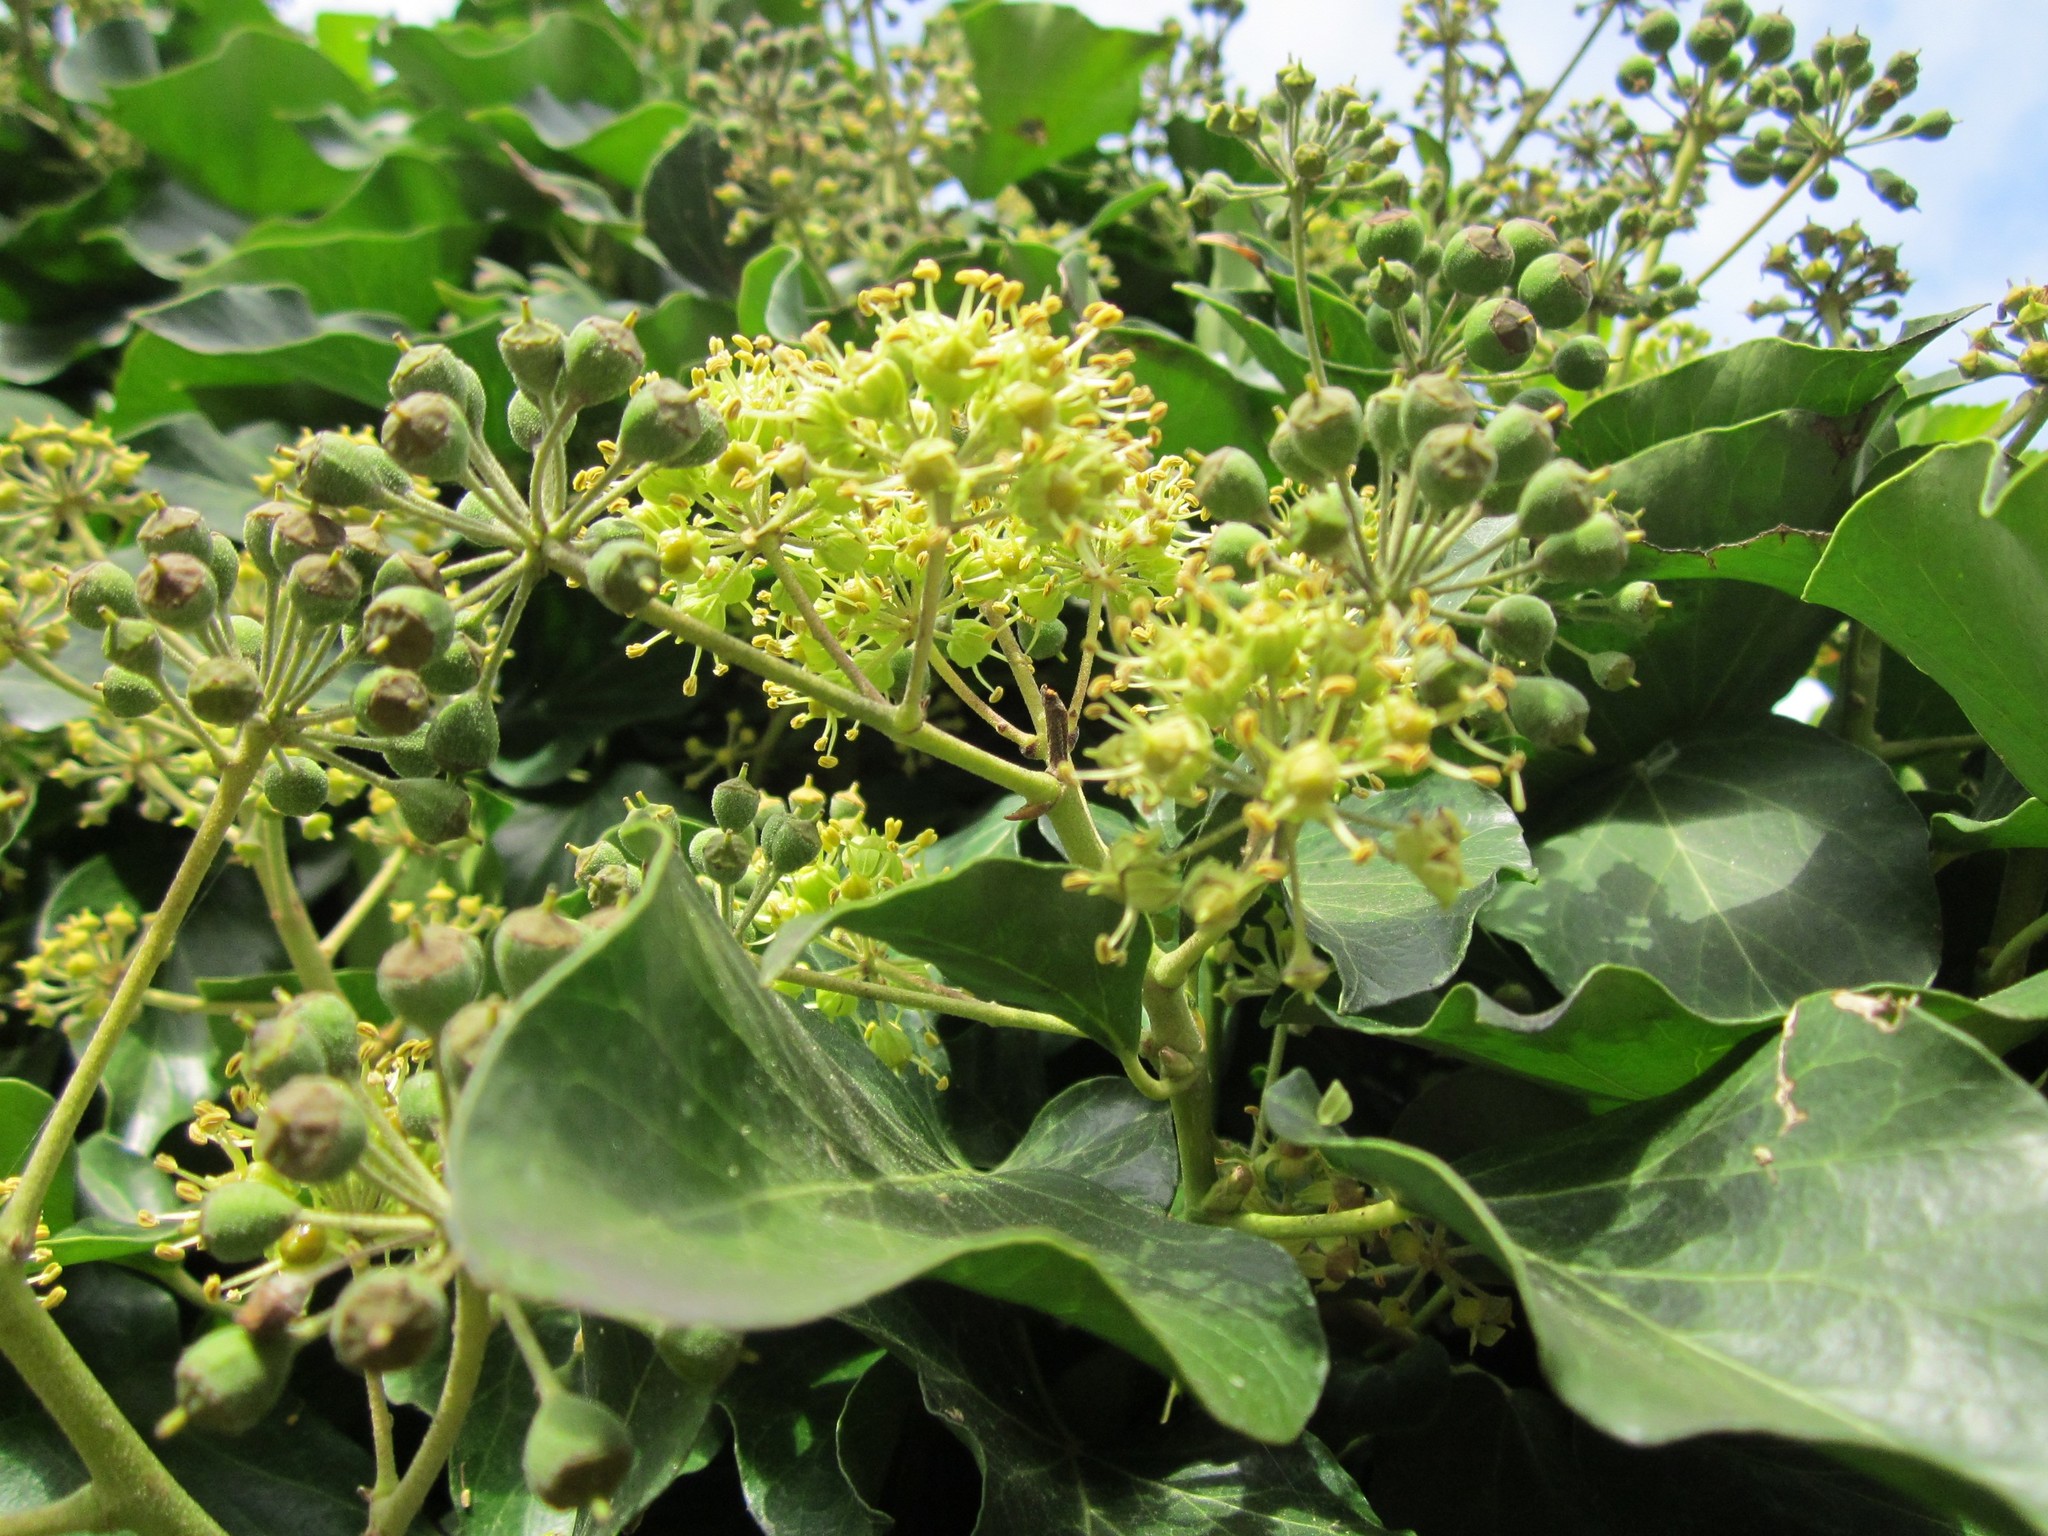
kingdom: Plantae
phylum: Tracheophyta
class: Magnoliopsida
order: Apiales
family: Araliaceae
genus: Hedera
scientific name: Hedera helix
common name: Ivy
